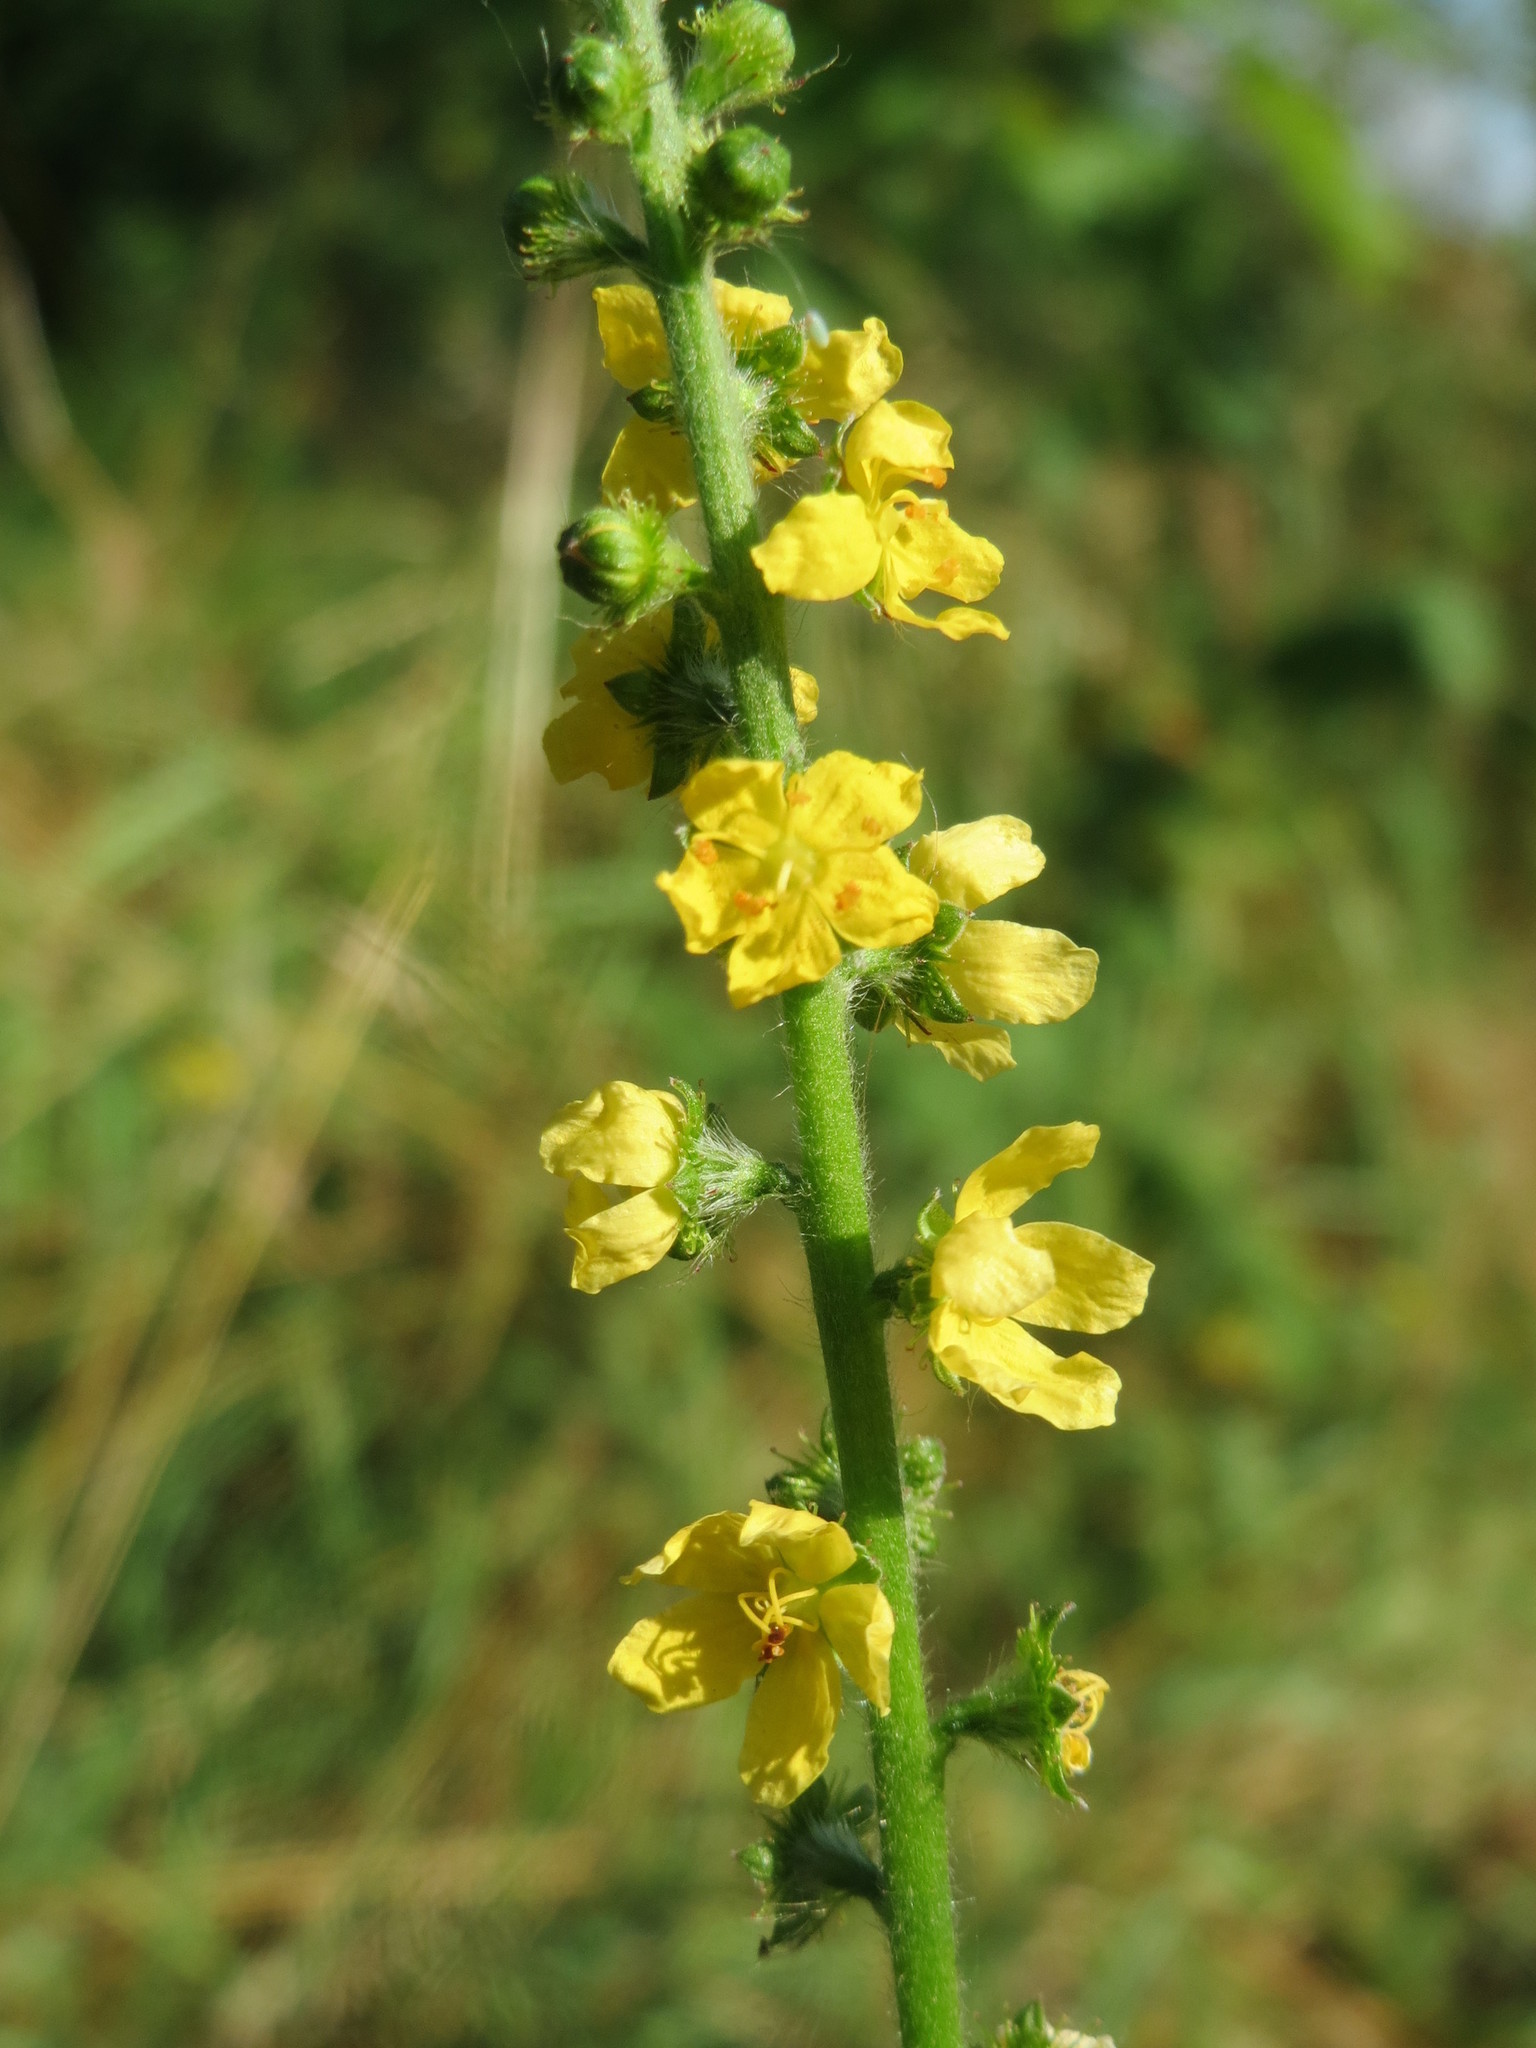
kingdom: Plantae
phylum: Tracheophyta
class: Magnoliopsida
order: Rosales
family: Rosaceae
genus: Agrimonia
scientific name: Agrimonia eupatoria
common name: Agrimony
